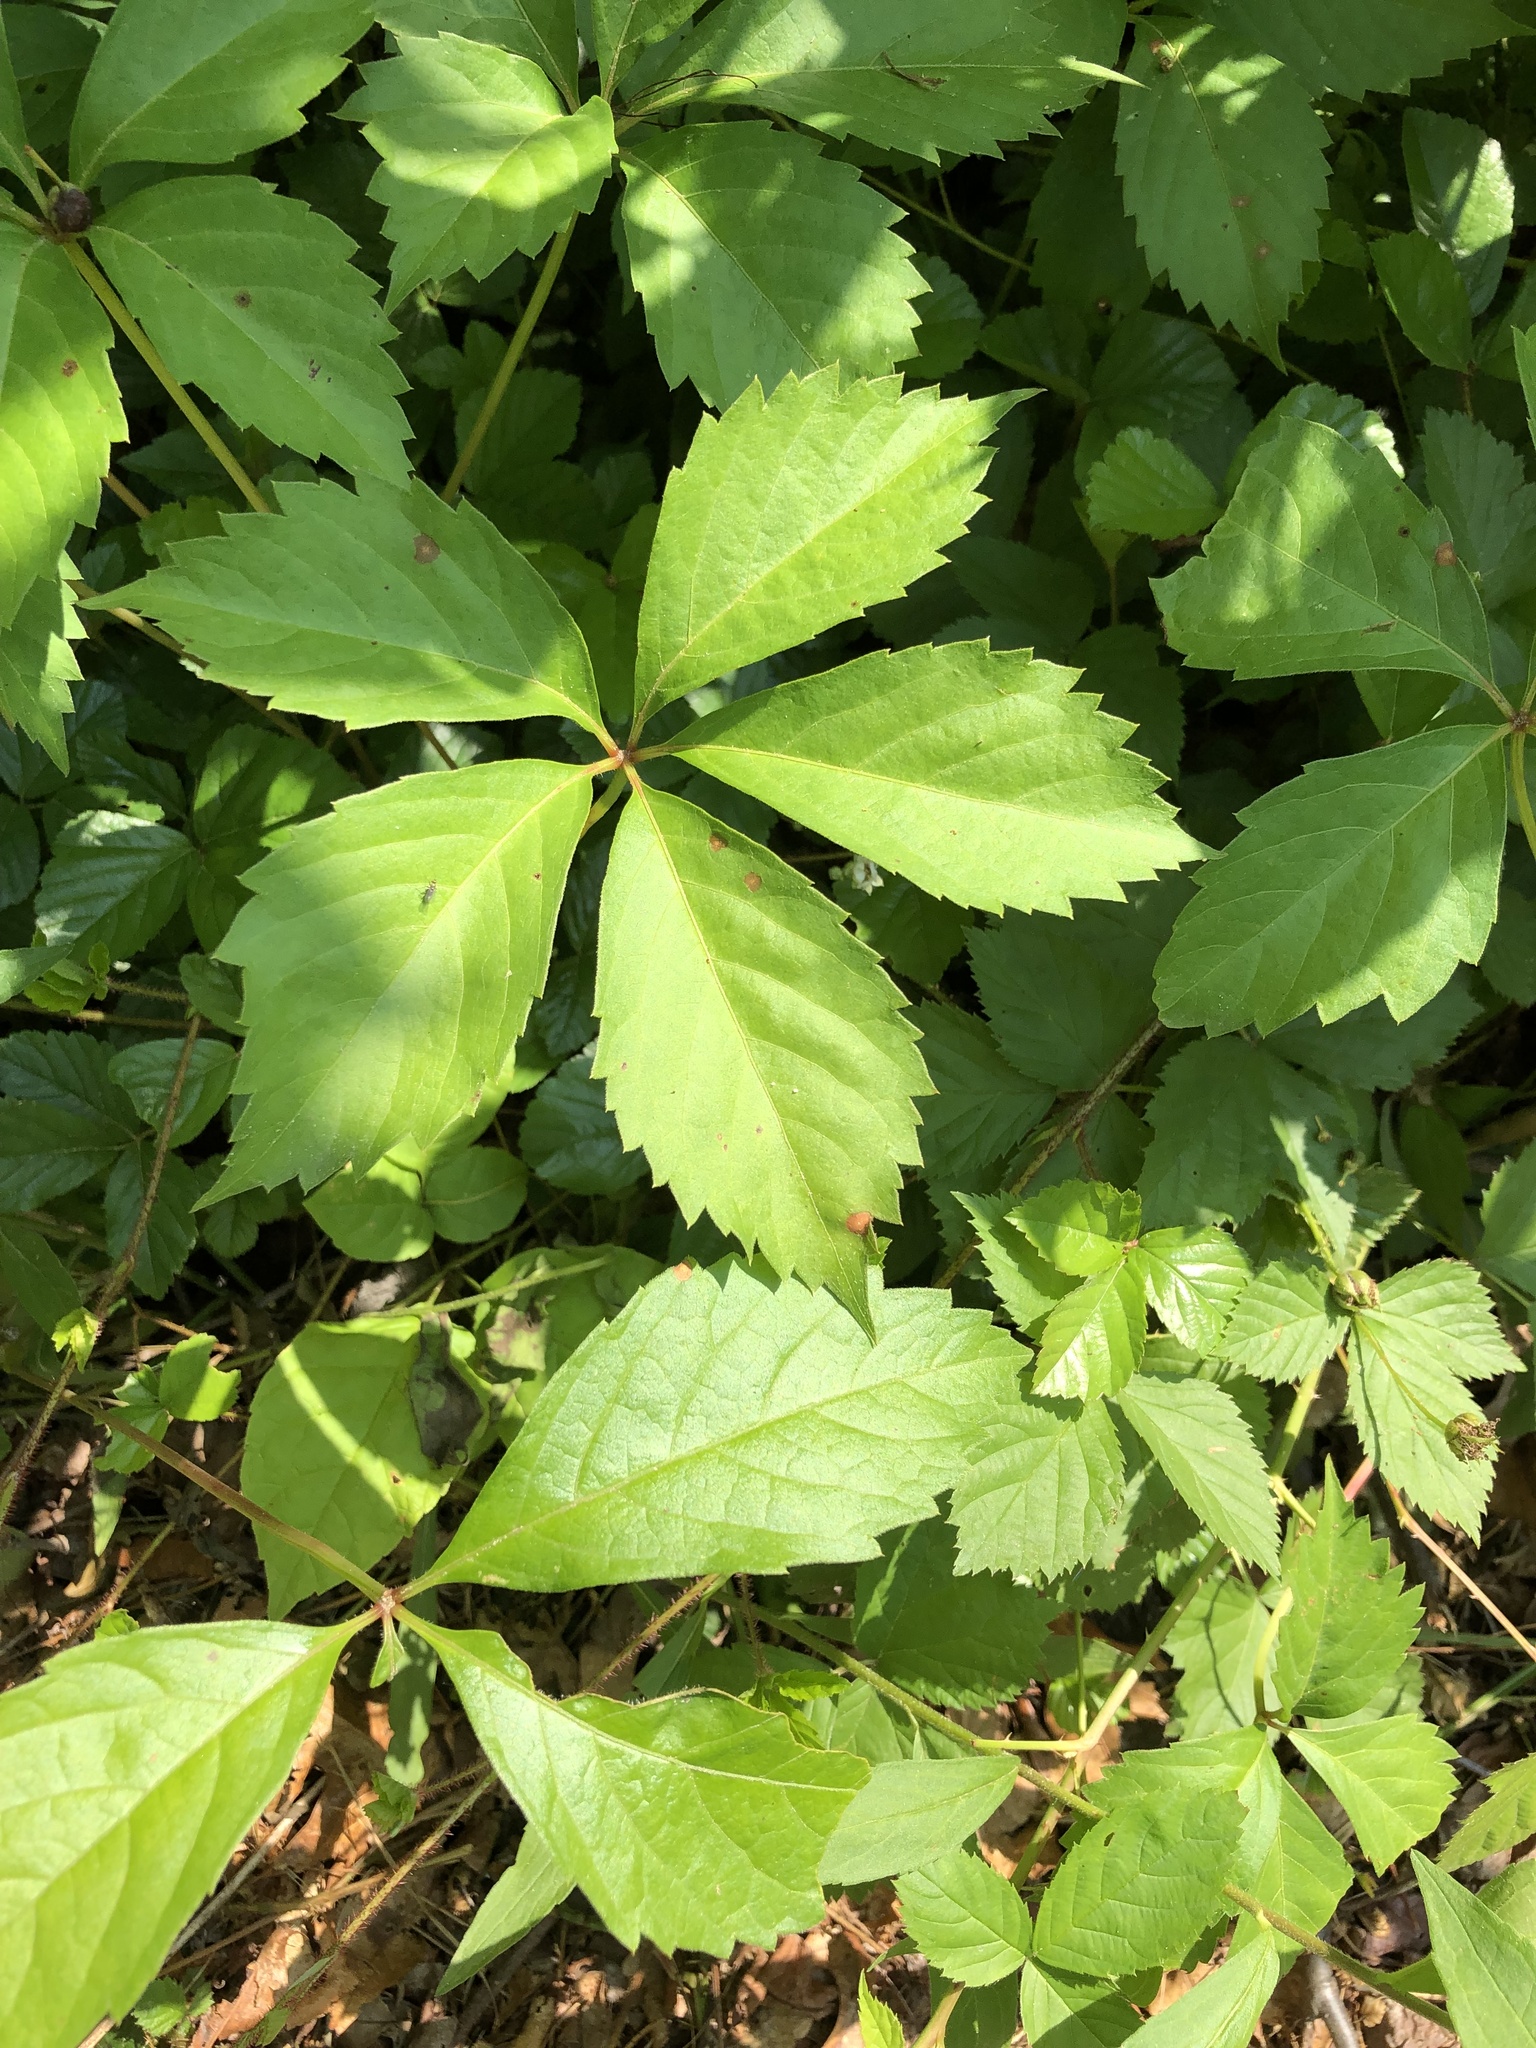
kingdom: Plantae
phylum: Tracheophyta
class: Magnoliopsida
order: Vitales
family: Vitaceae
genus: Parthenocissus
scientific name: Parthenocissus quinquefolia
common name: Virginia-creeper
